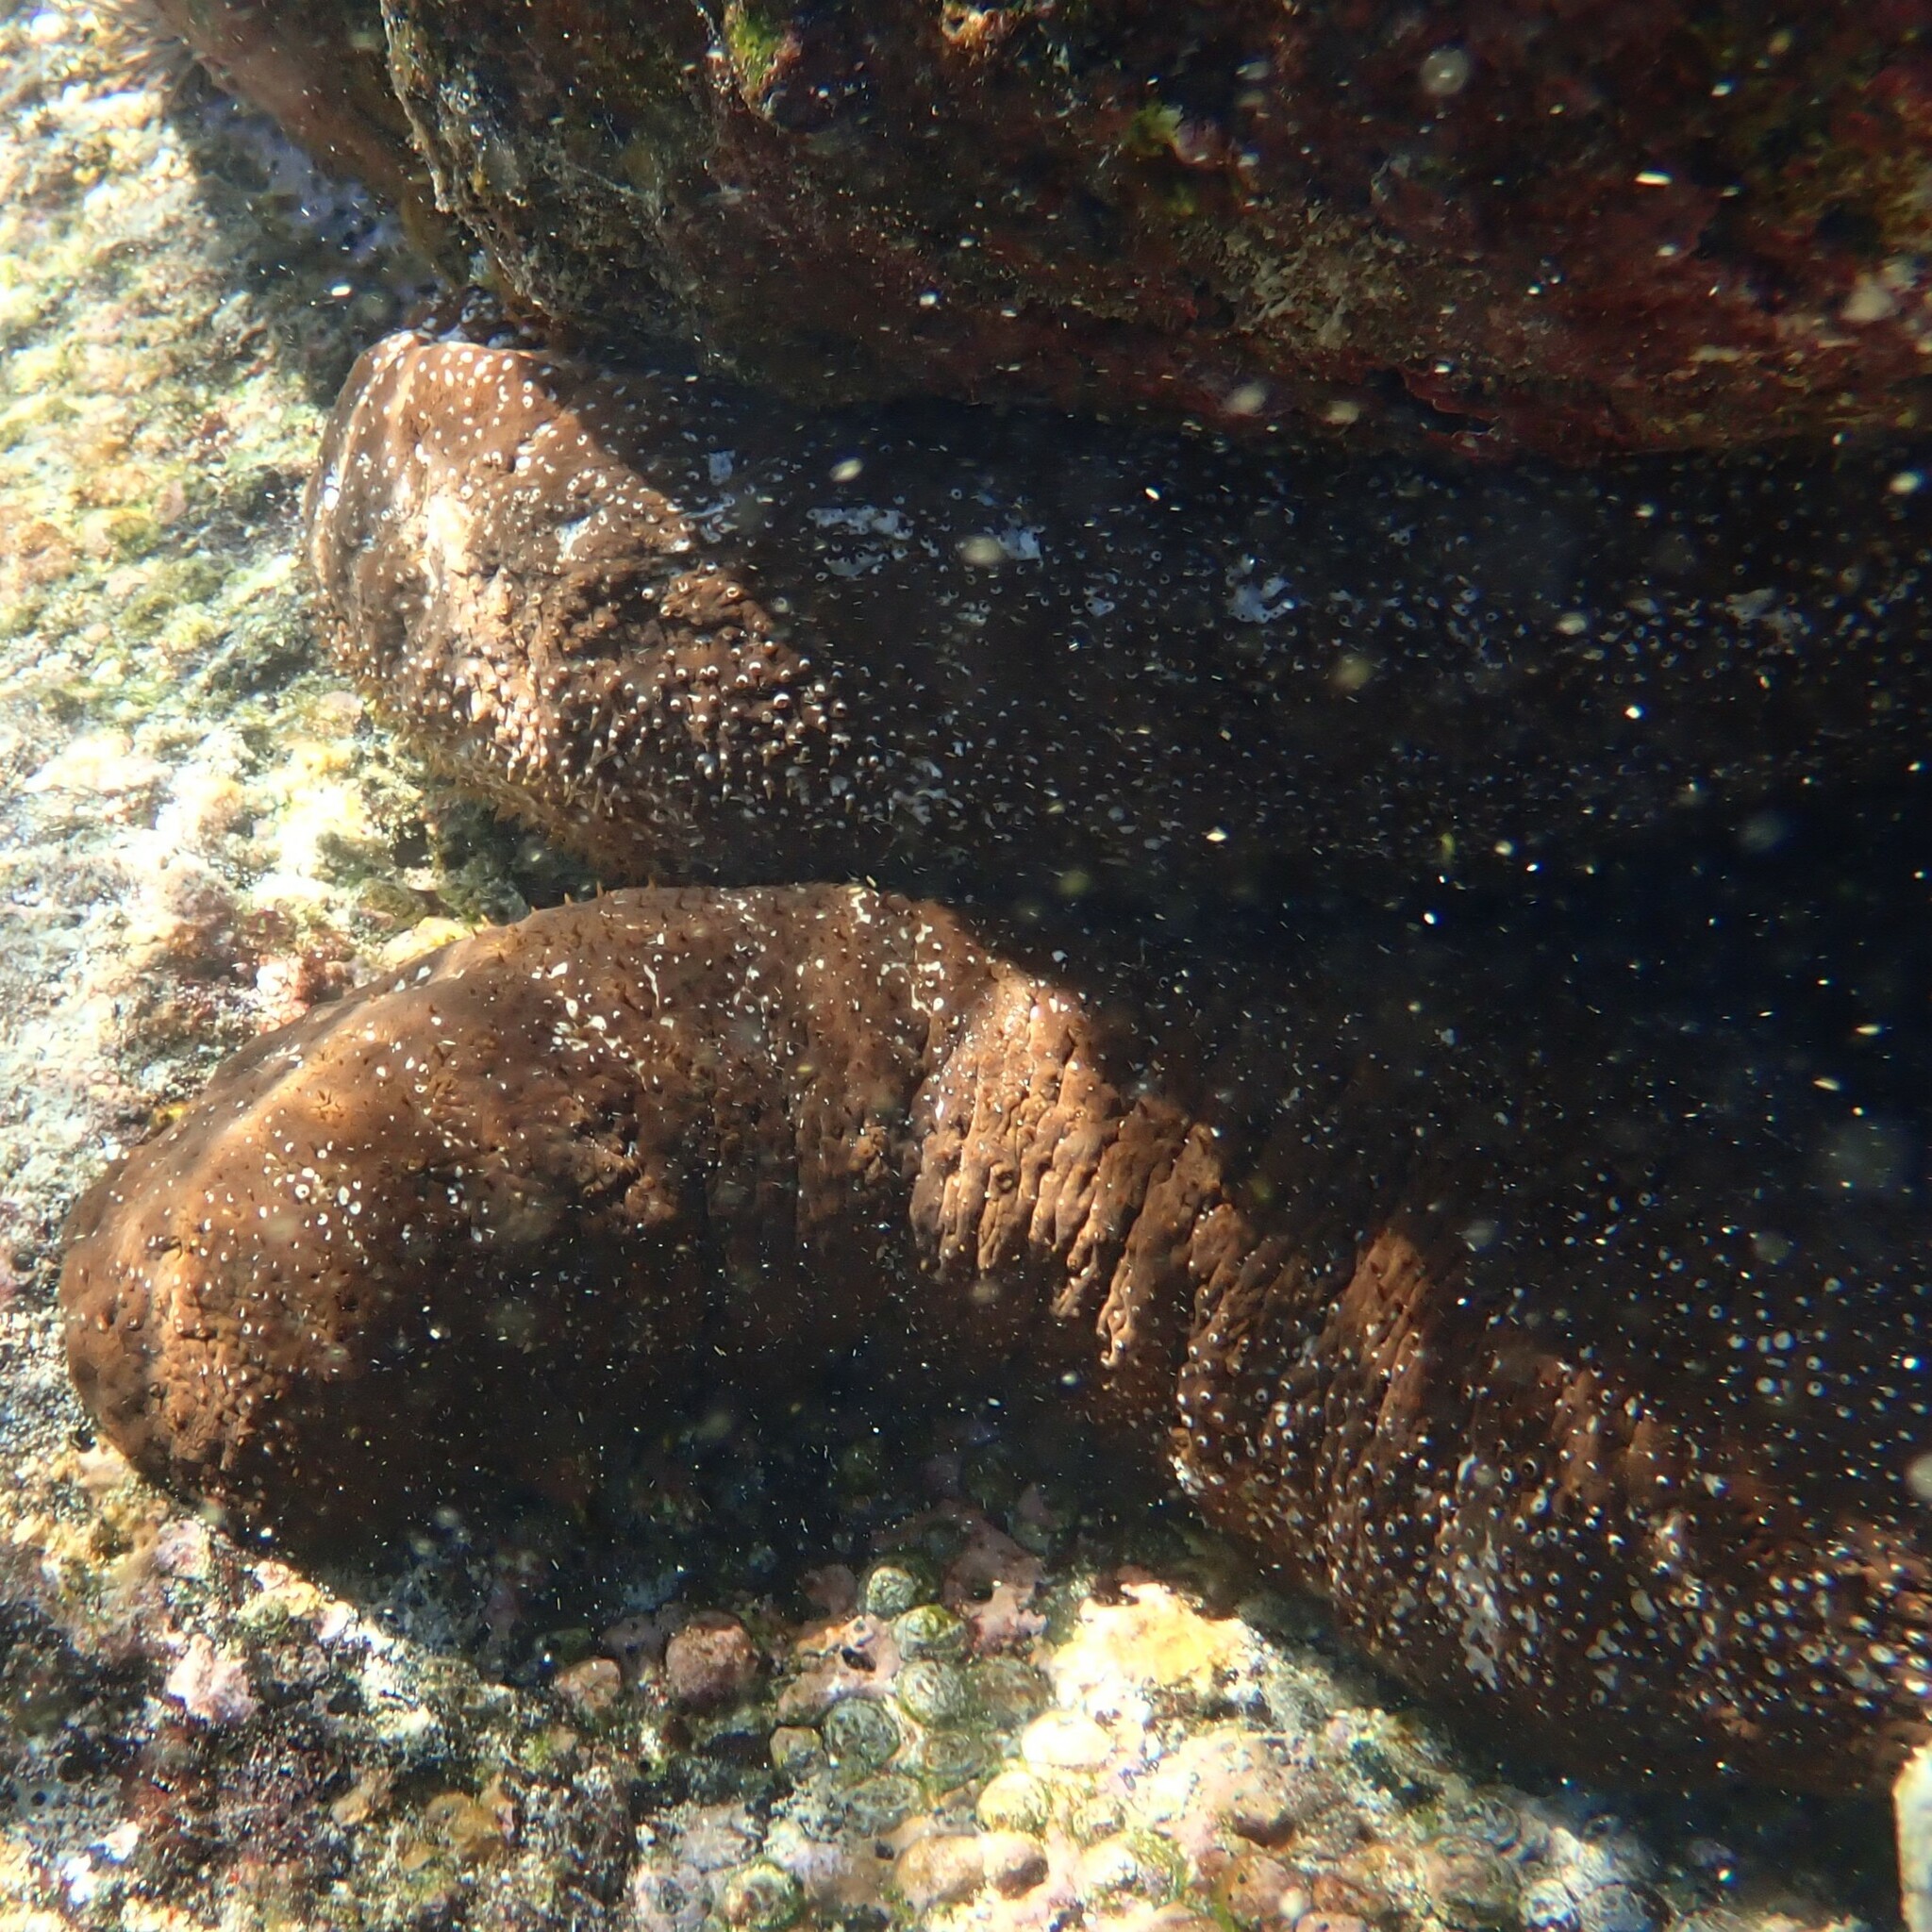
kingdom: Animalia
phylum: Echinodermata
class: Holothuroidea
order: Holothuriida
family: Holothuriidae
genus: Actinopyga
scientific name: Actinopyga varians
